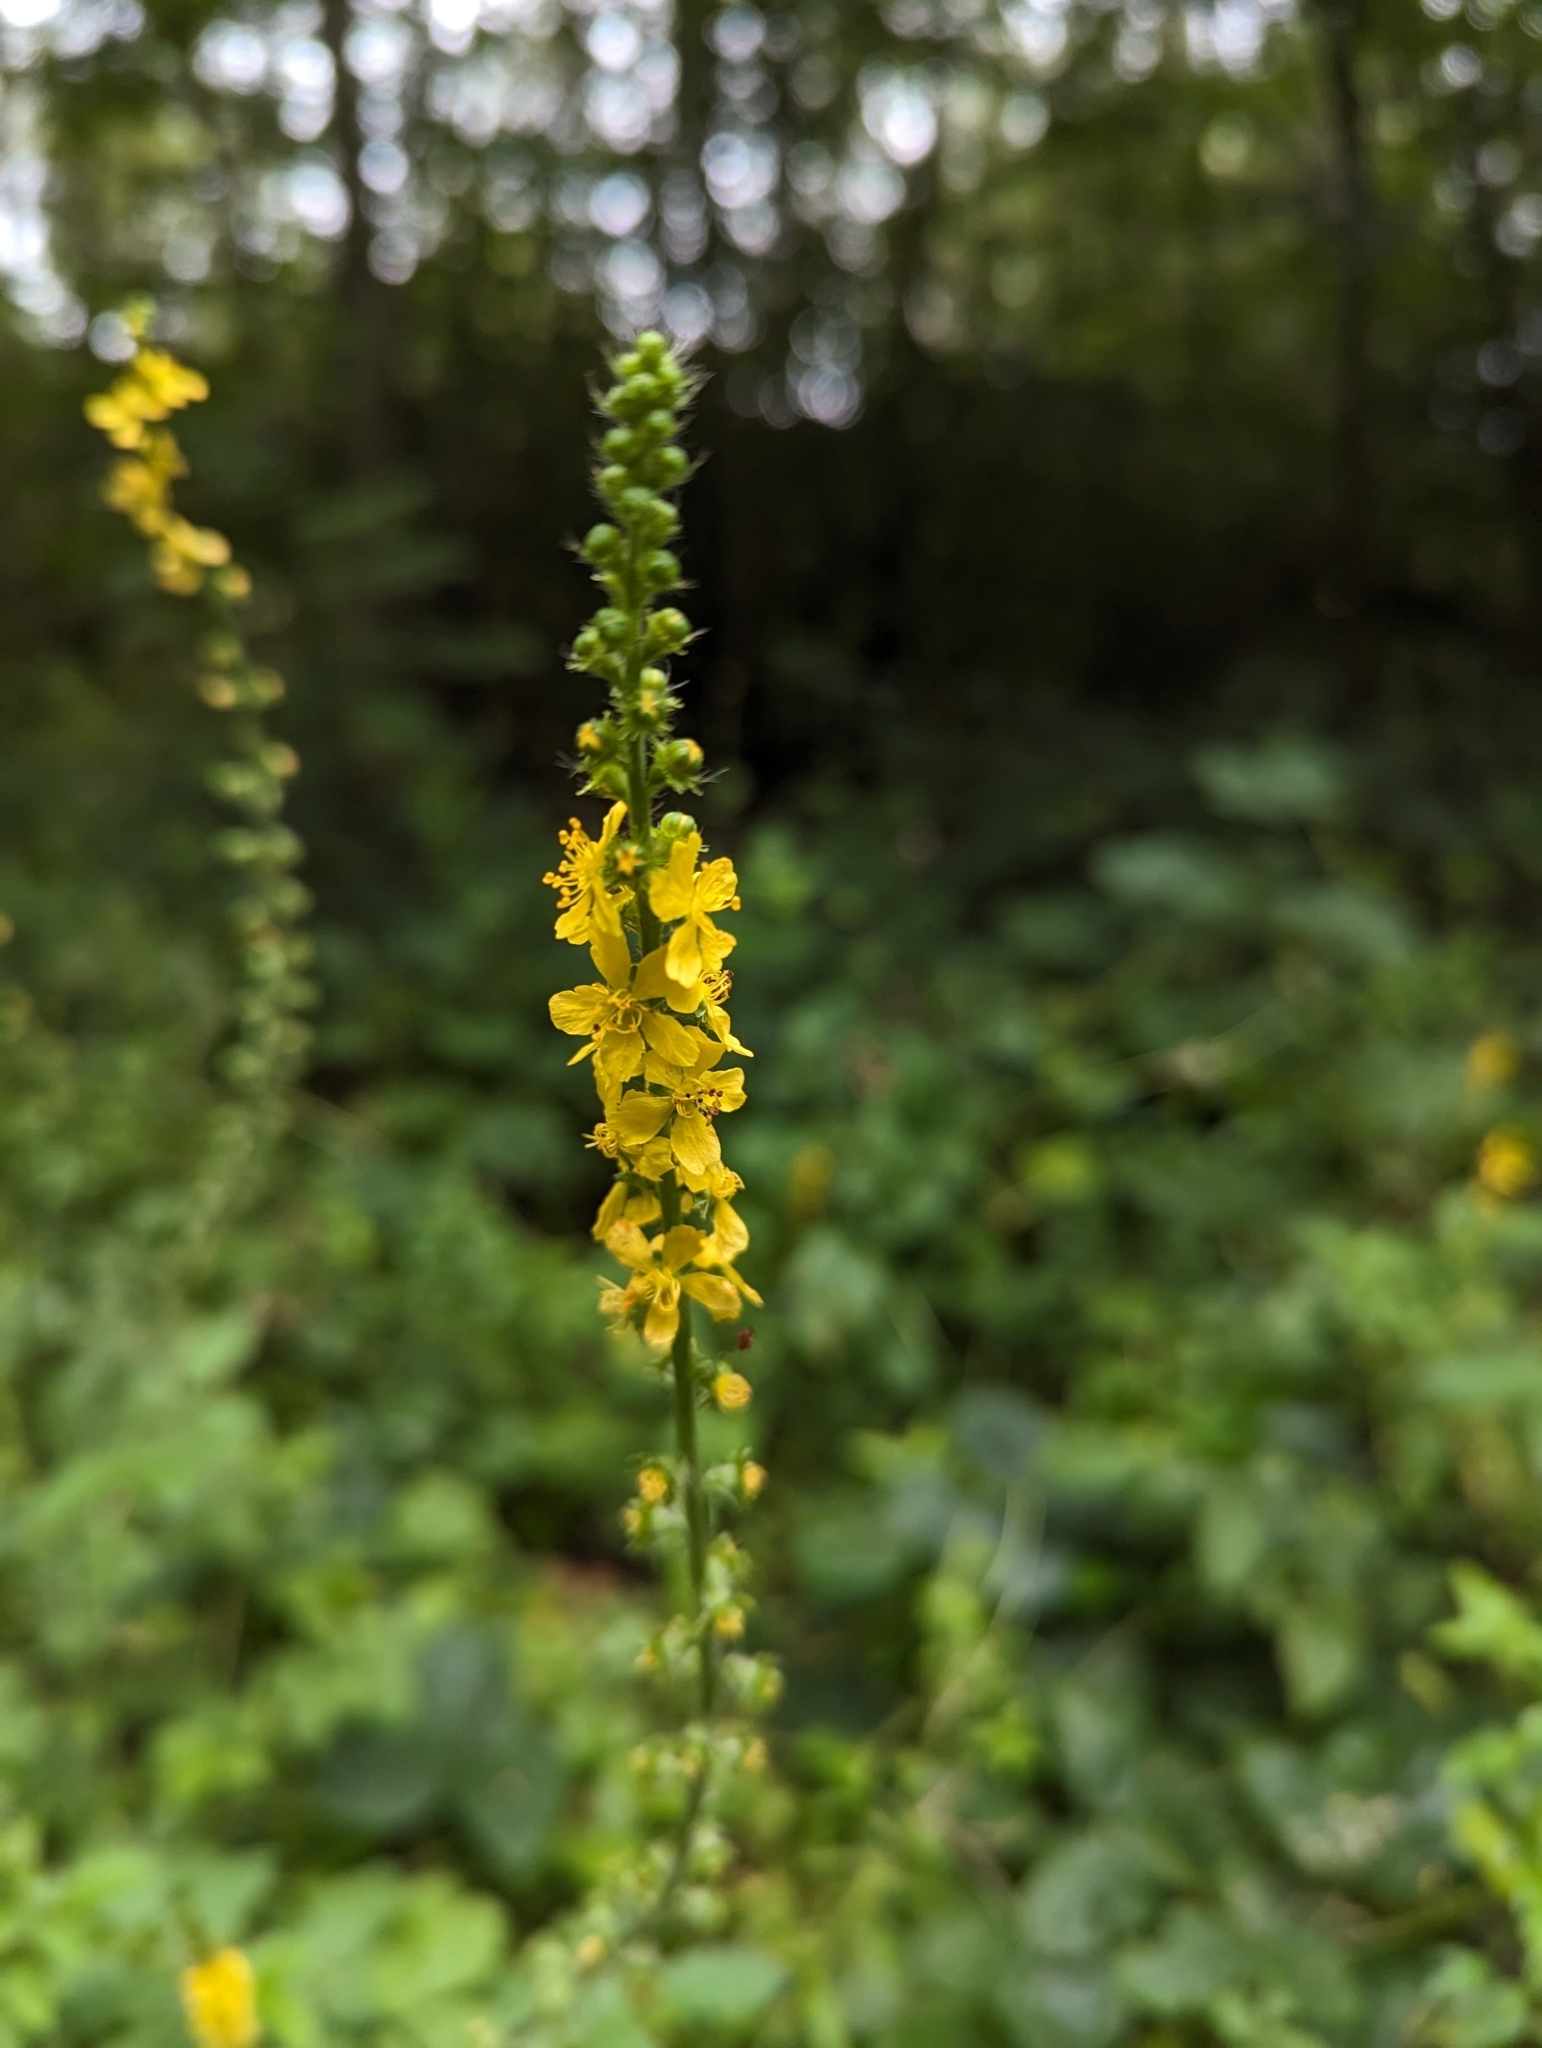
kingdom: Plantae
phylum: Tracheophyta
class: Magnoliopsida
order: Rosales
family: Rosaceae
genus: Agrimonia
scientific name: Agrimonia eupatoria
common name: Agrimony
